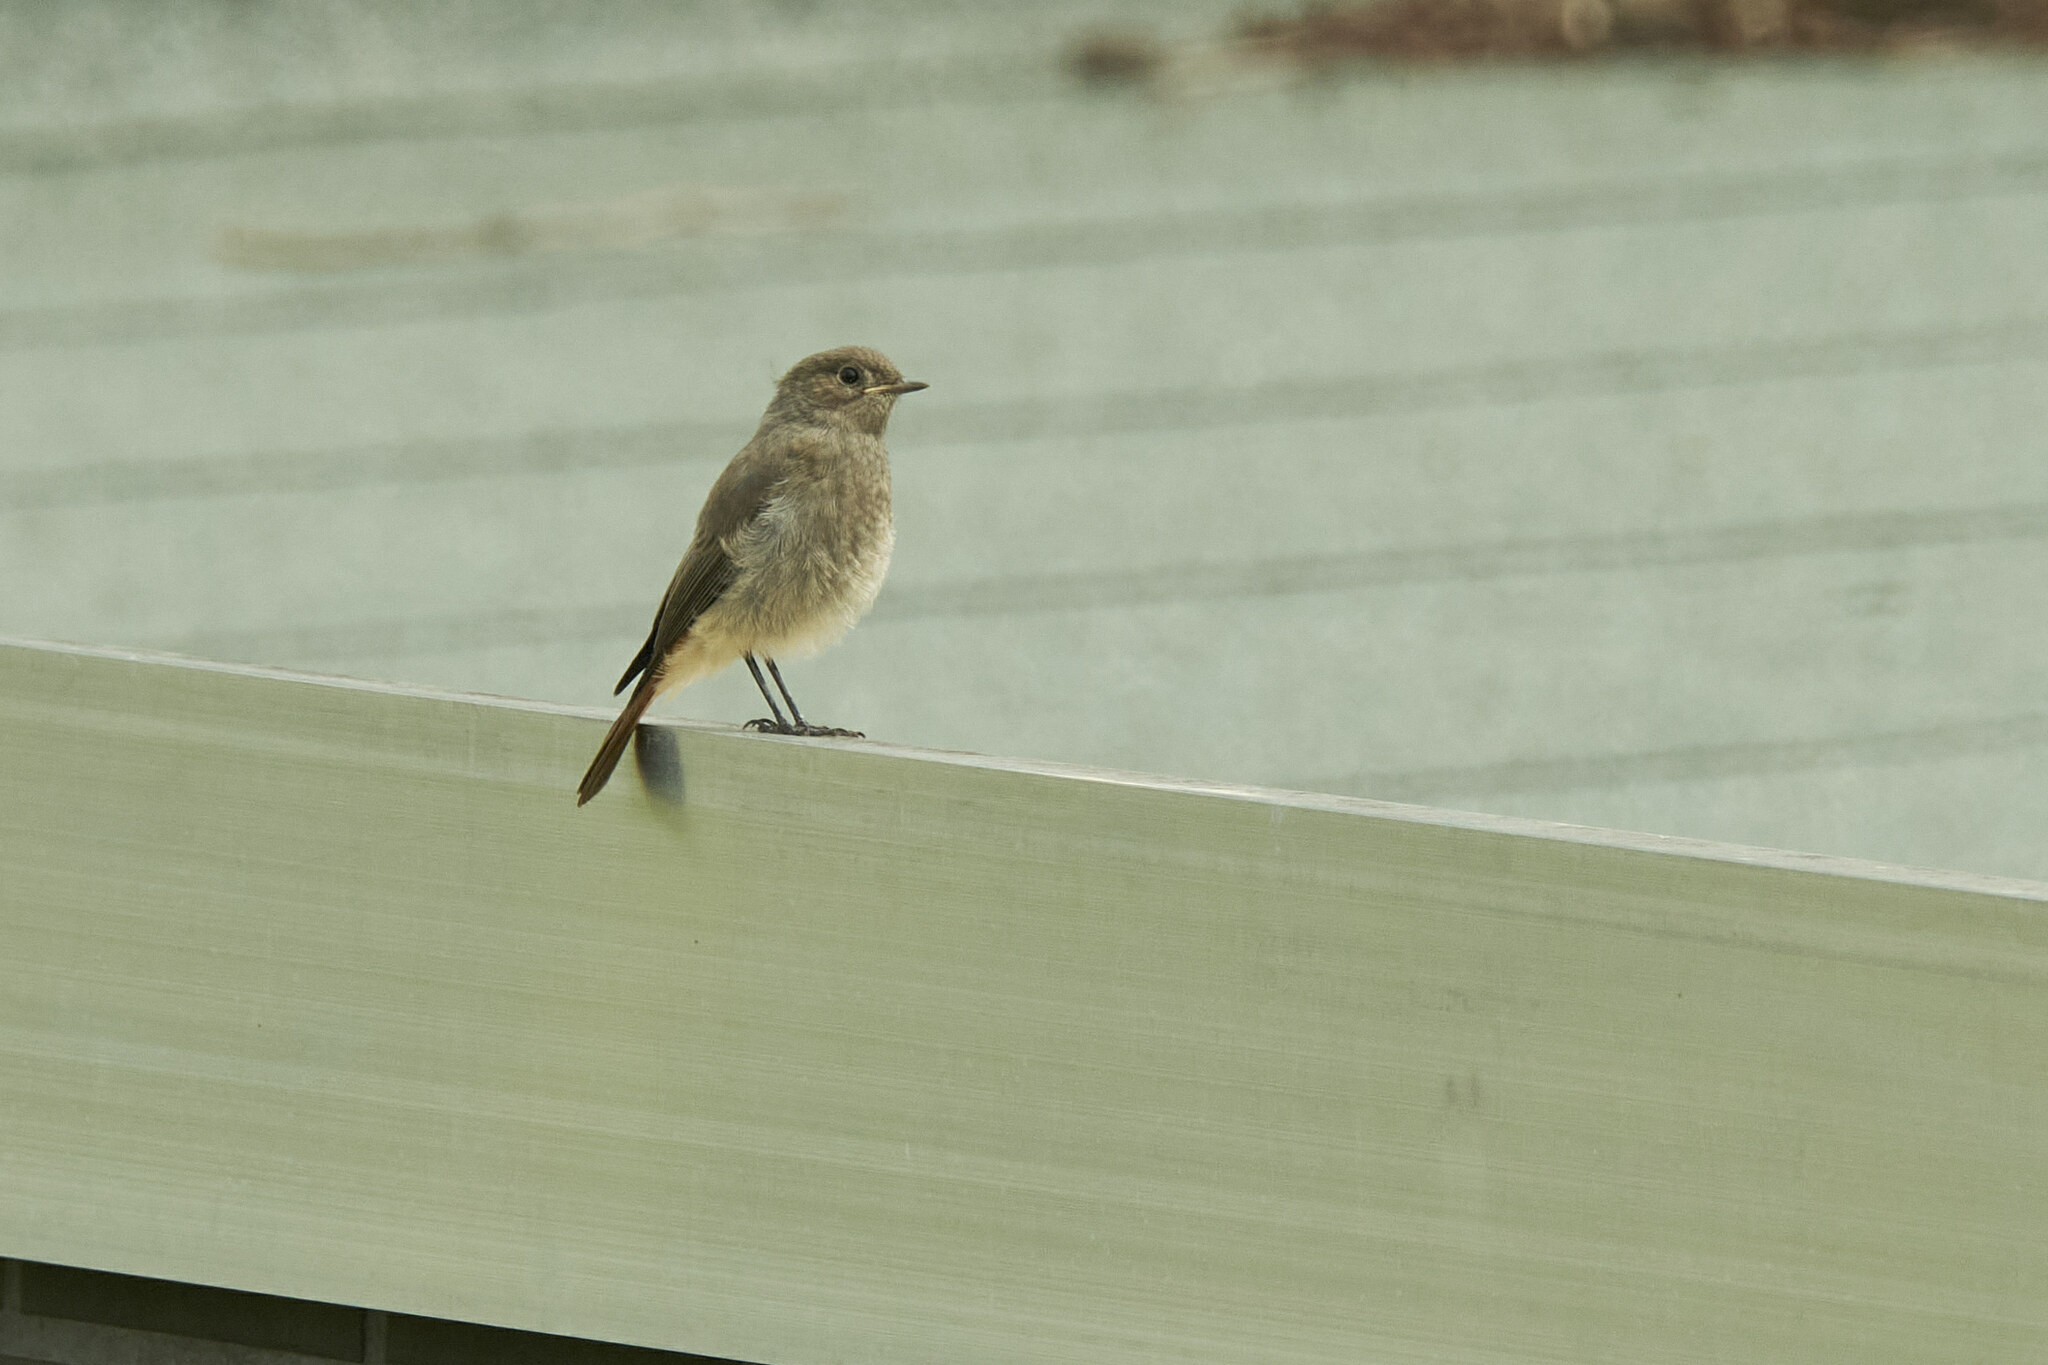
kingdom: Animalia
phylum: Chordata
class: Aves
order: Passeriformes
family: Muscicapidae
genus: Phoenicurus
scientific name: Phoenicurus ochruros
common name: Black redstart
